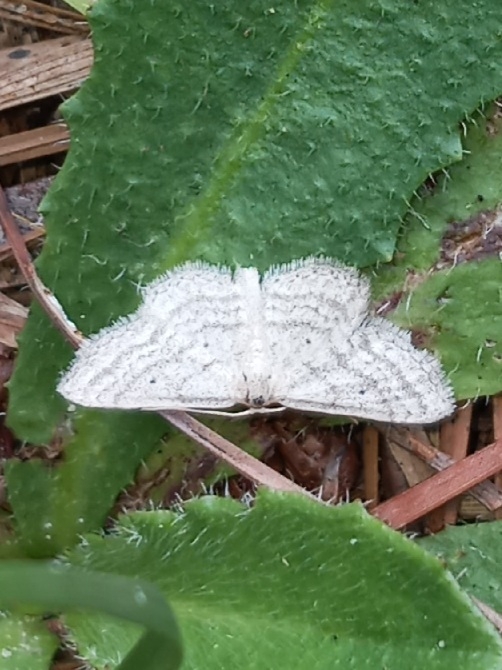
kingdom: Animalia
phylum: Arthropoda
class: Insecta
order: Lepidoptera
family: Geometridae
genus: Lobocleta
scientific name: Lobocleta ossularia
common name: Drab brown wave
